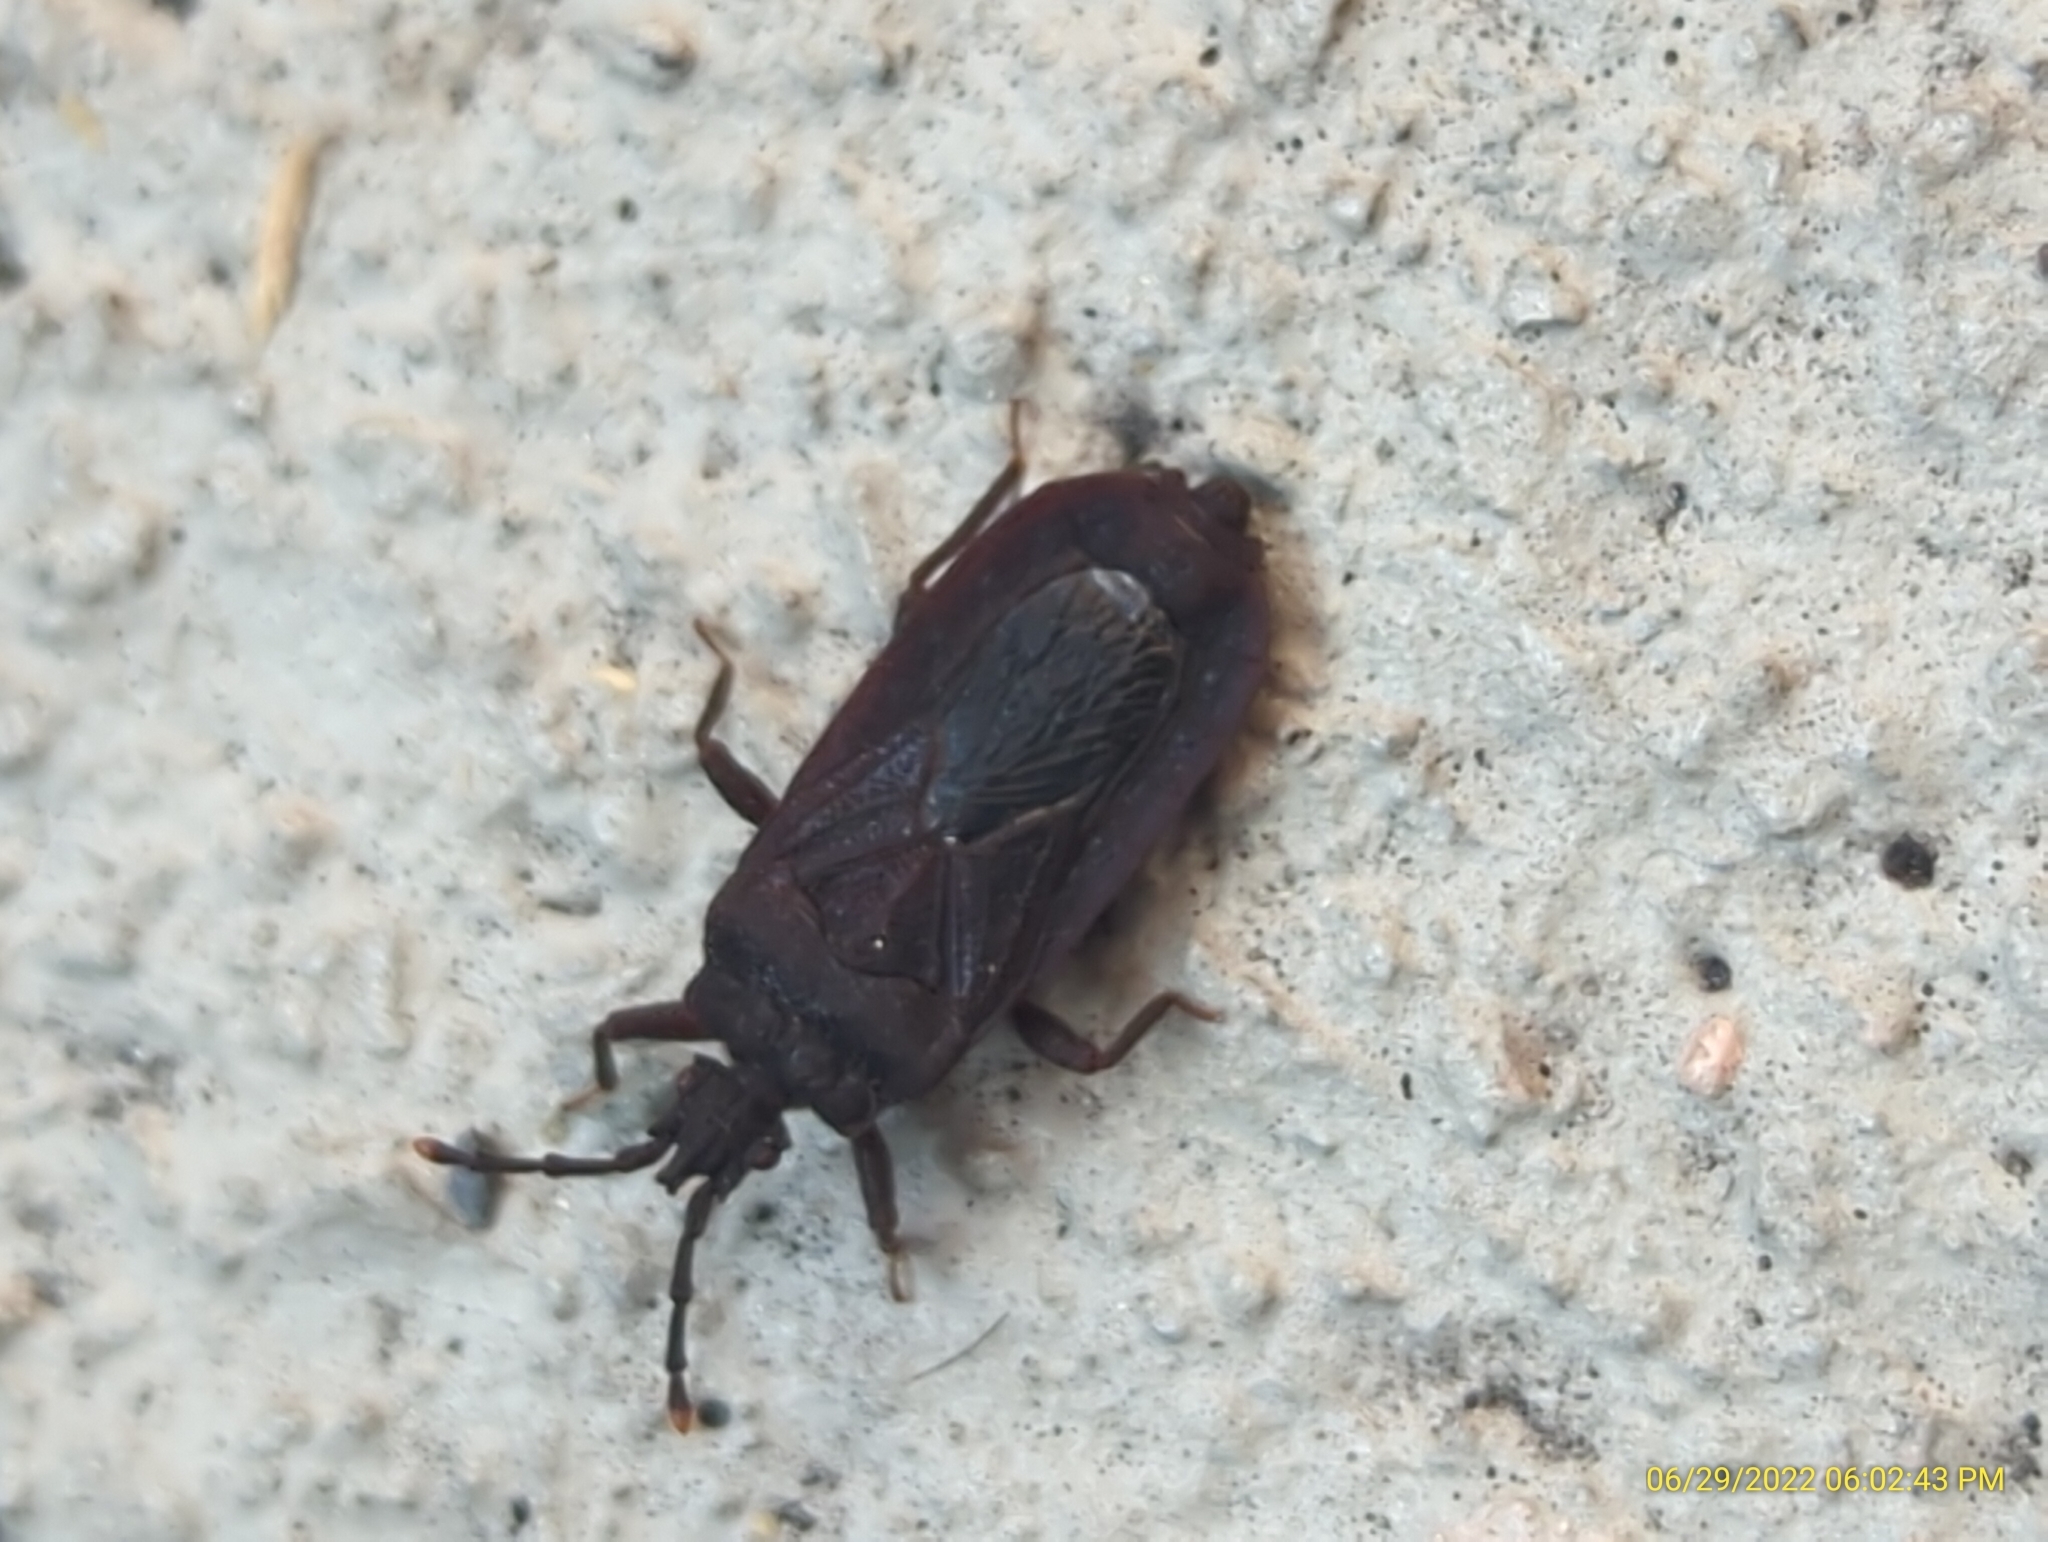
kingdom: Animalia
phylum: Arthropoda
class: Insecta
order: Hemiptera
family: Aradidae
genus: Brachyrhynchus
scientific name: Brachyrhynchus membranaceus
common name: Aradid flat bug
